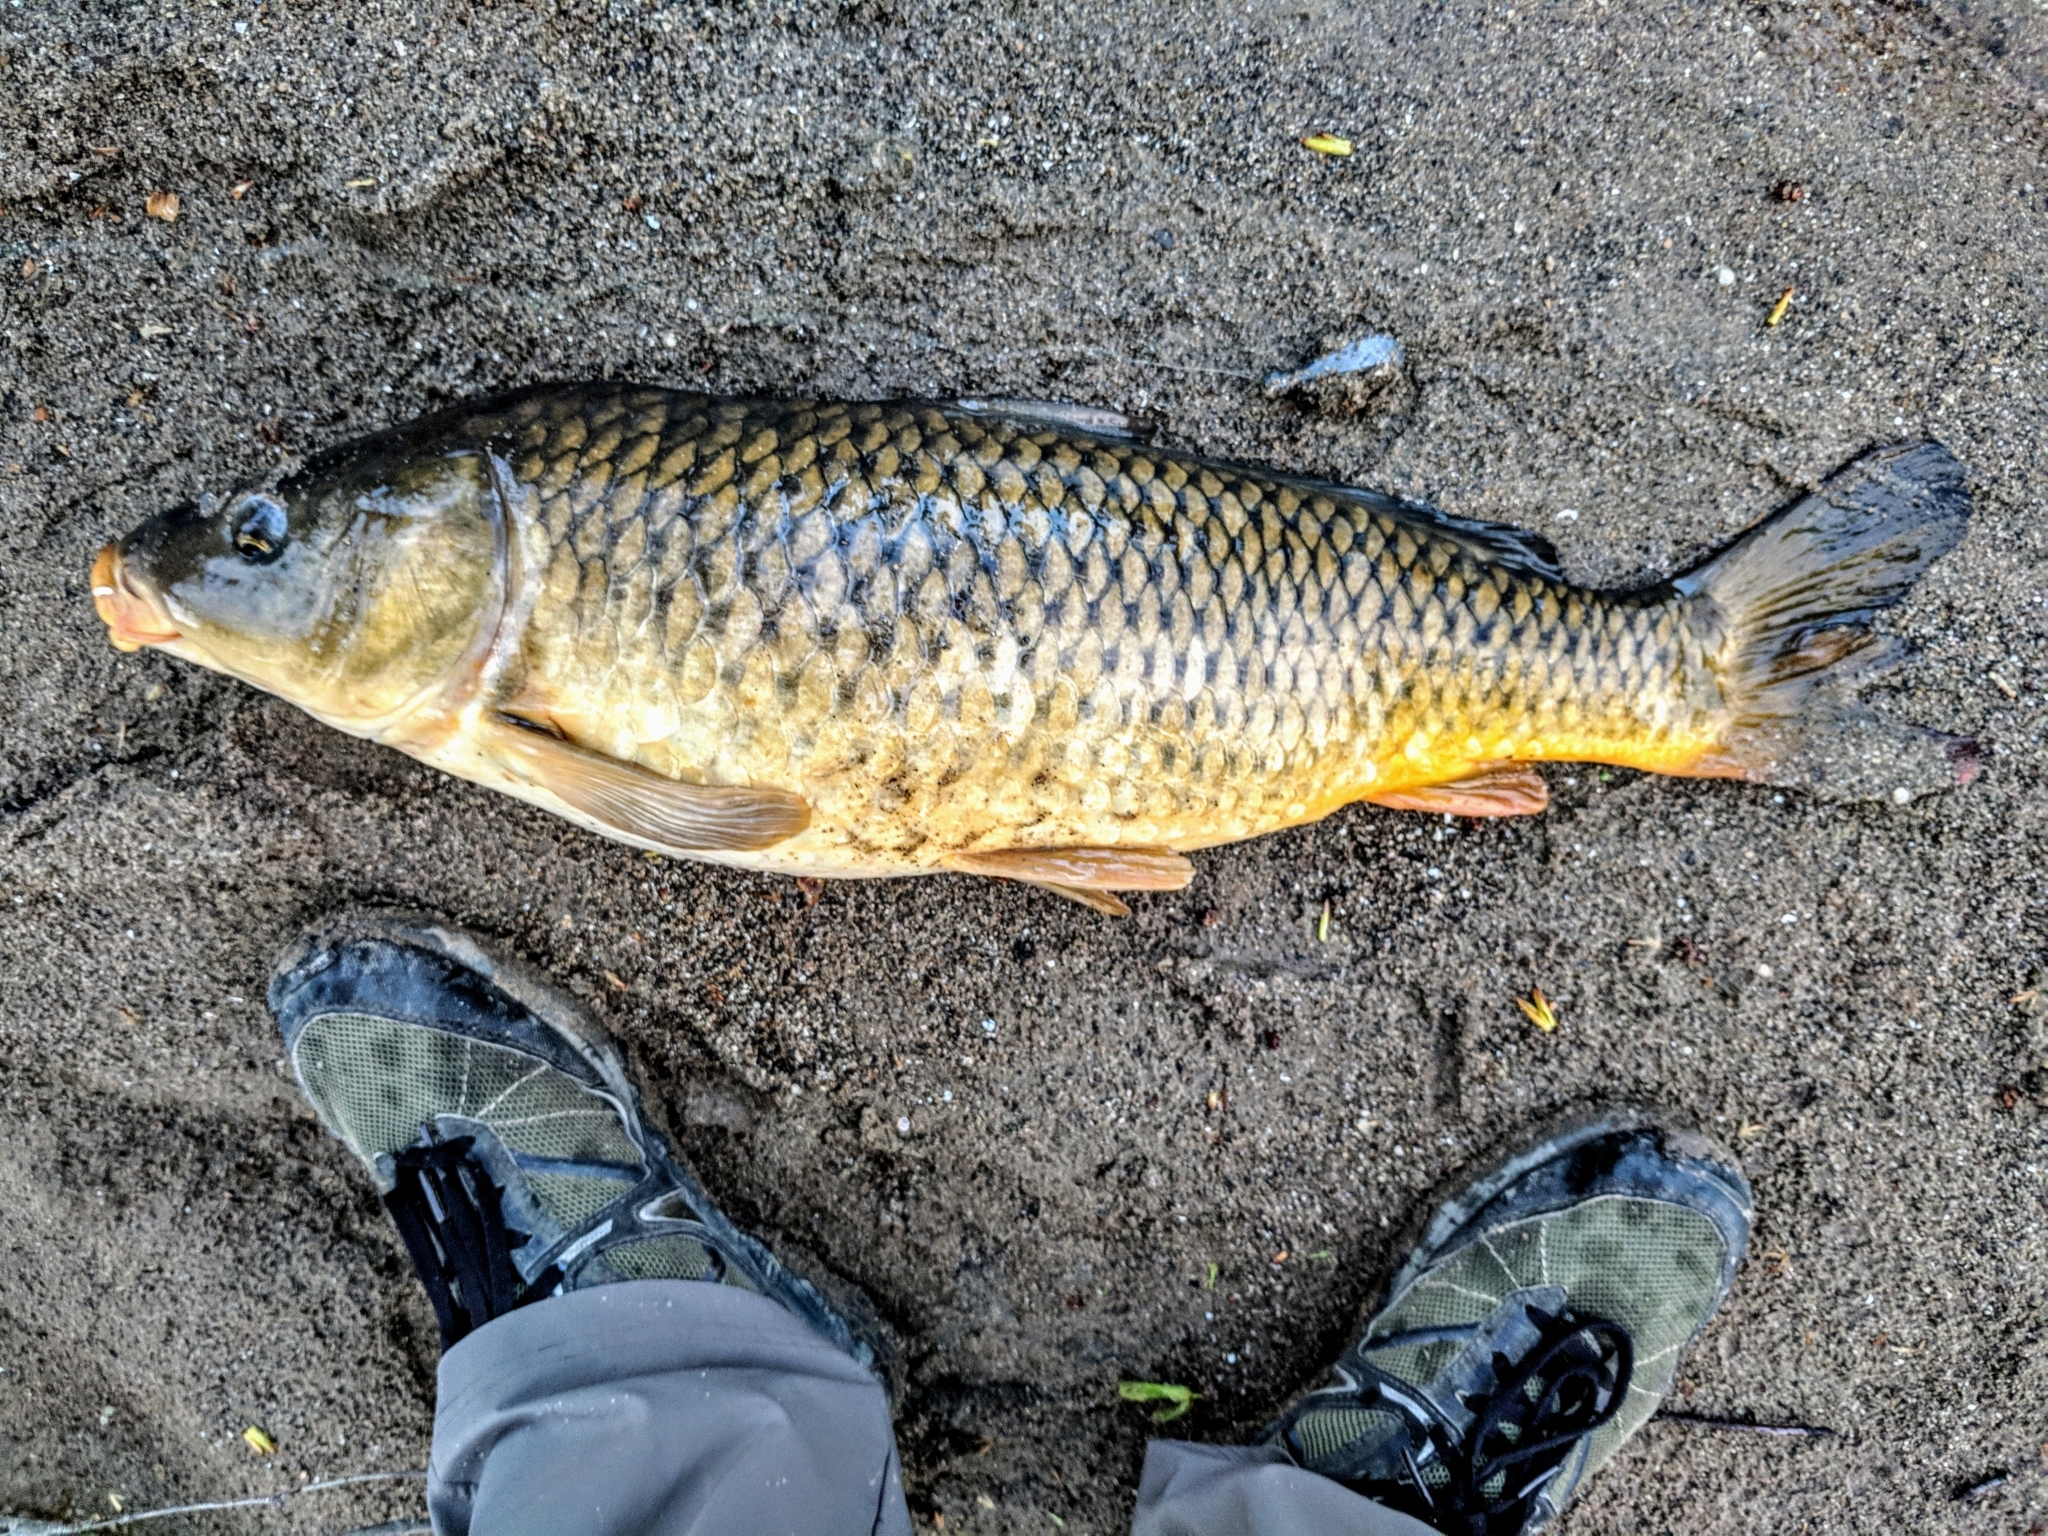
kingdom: Animalia
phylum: Chordata
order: Cypriniformes
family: Cyprinidae
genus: Cyprinus
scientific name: Cyprinus carpio
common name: Common carp
